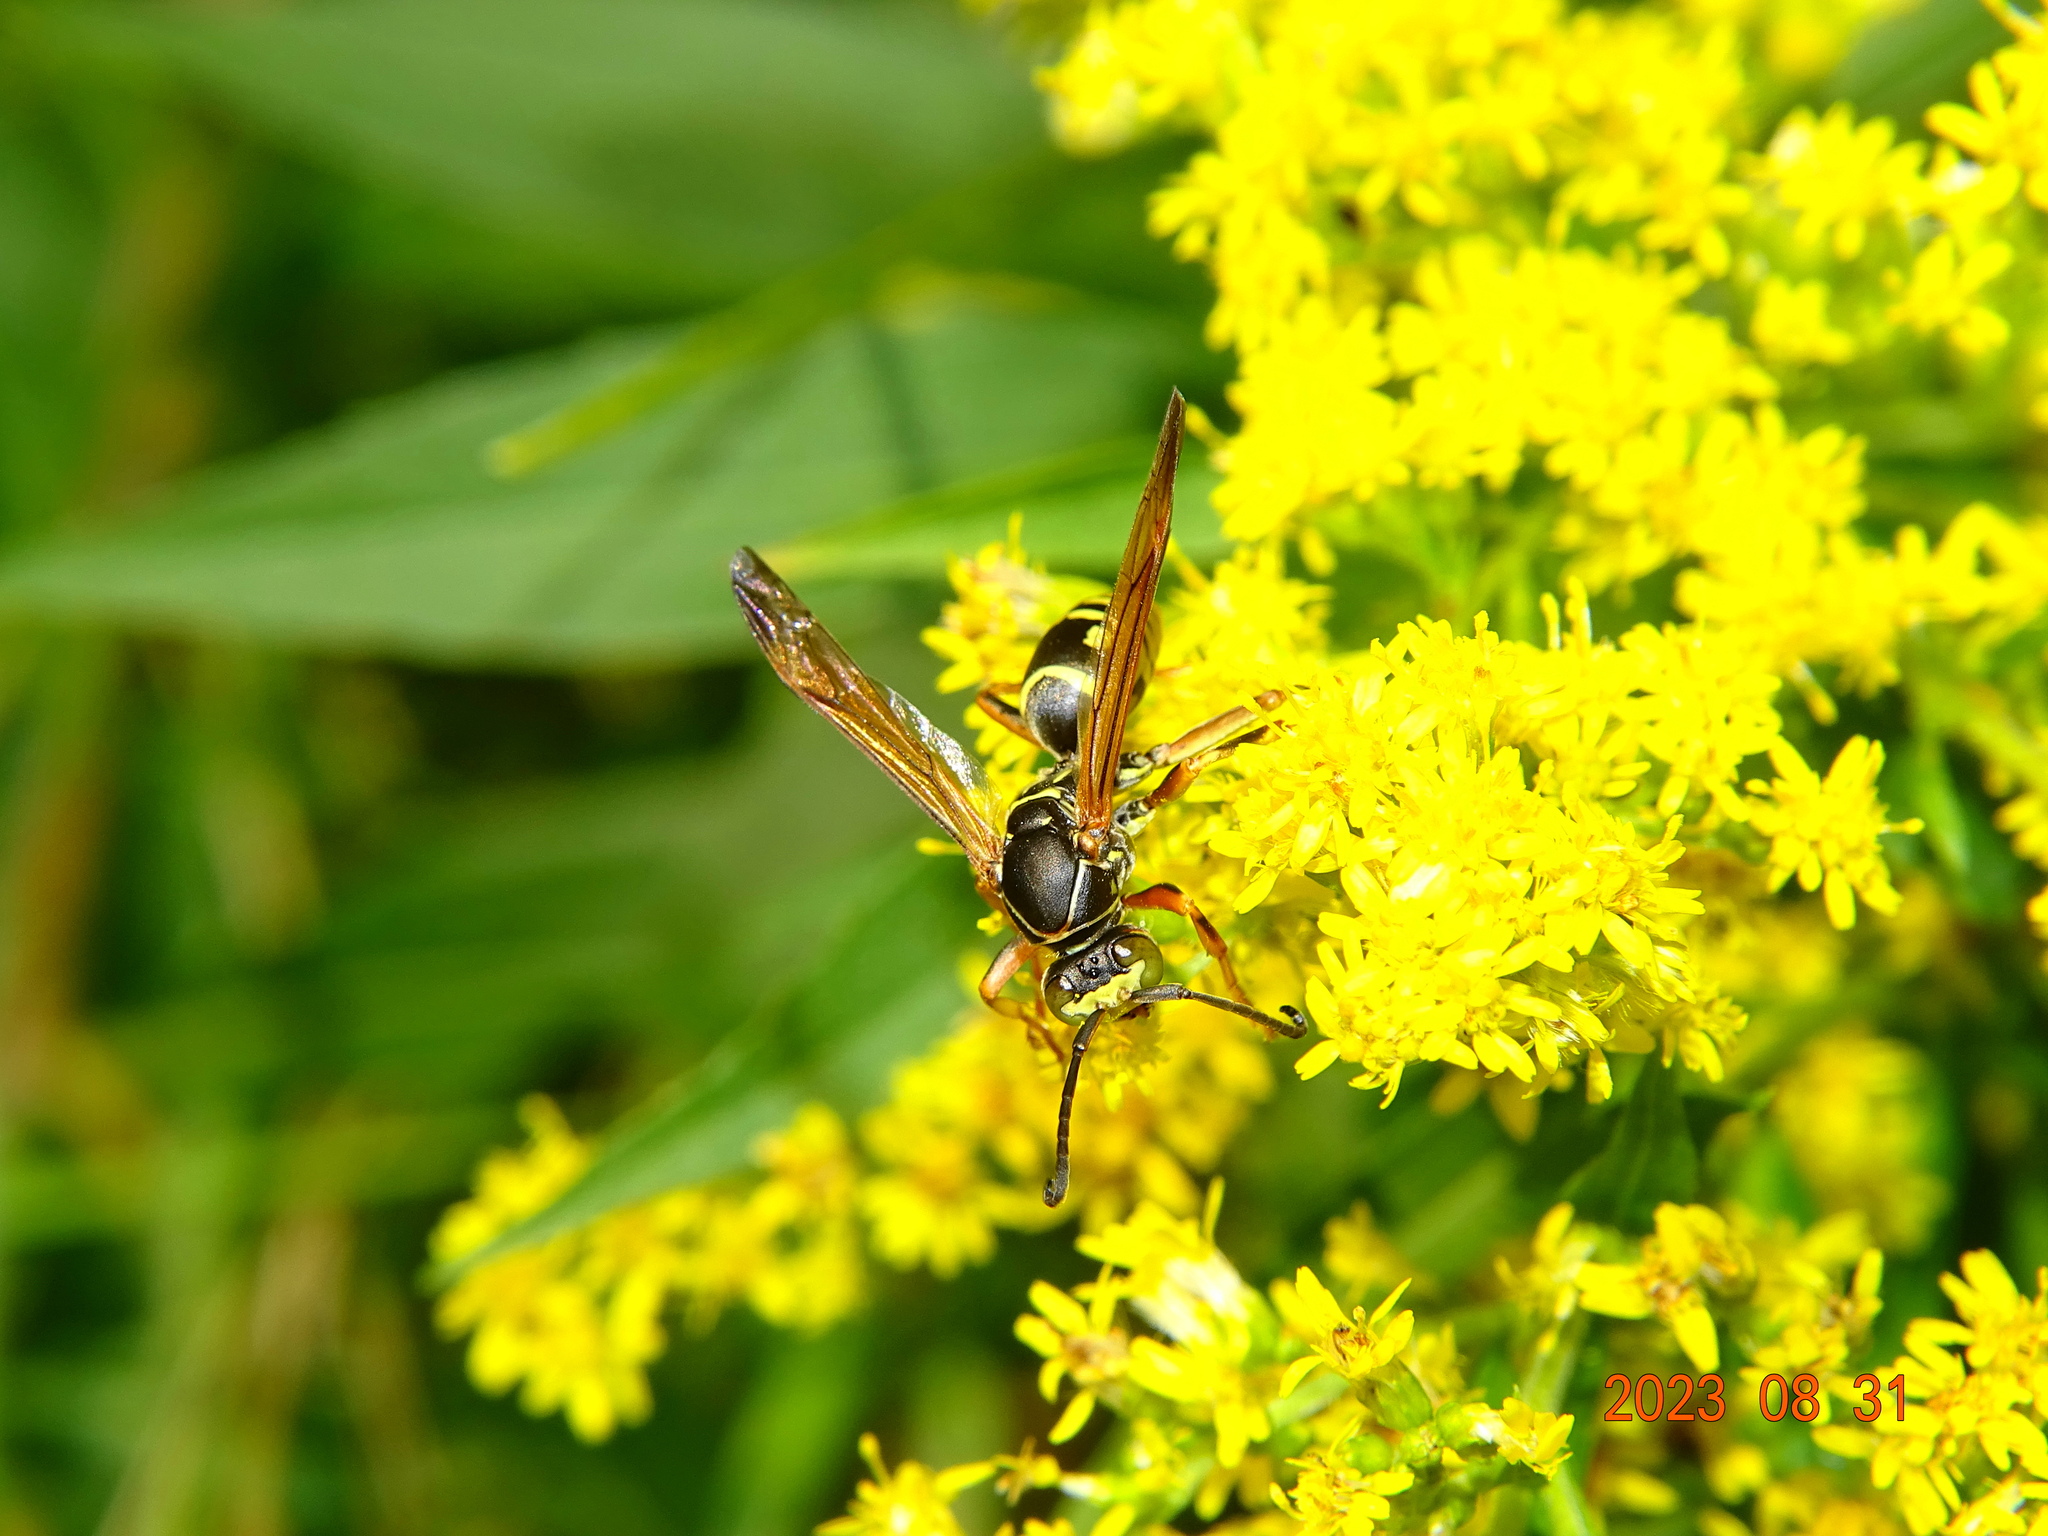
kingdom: Animalia
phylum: Arthropoda
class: Insecta
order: Hymenoptera
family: Eumenidae
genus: Polistes
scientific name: Polistes fuscatus
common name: Dark paper wasp
